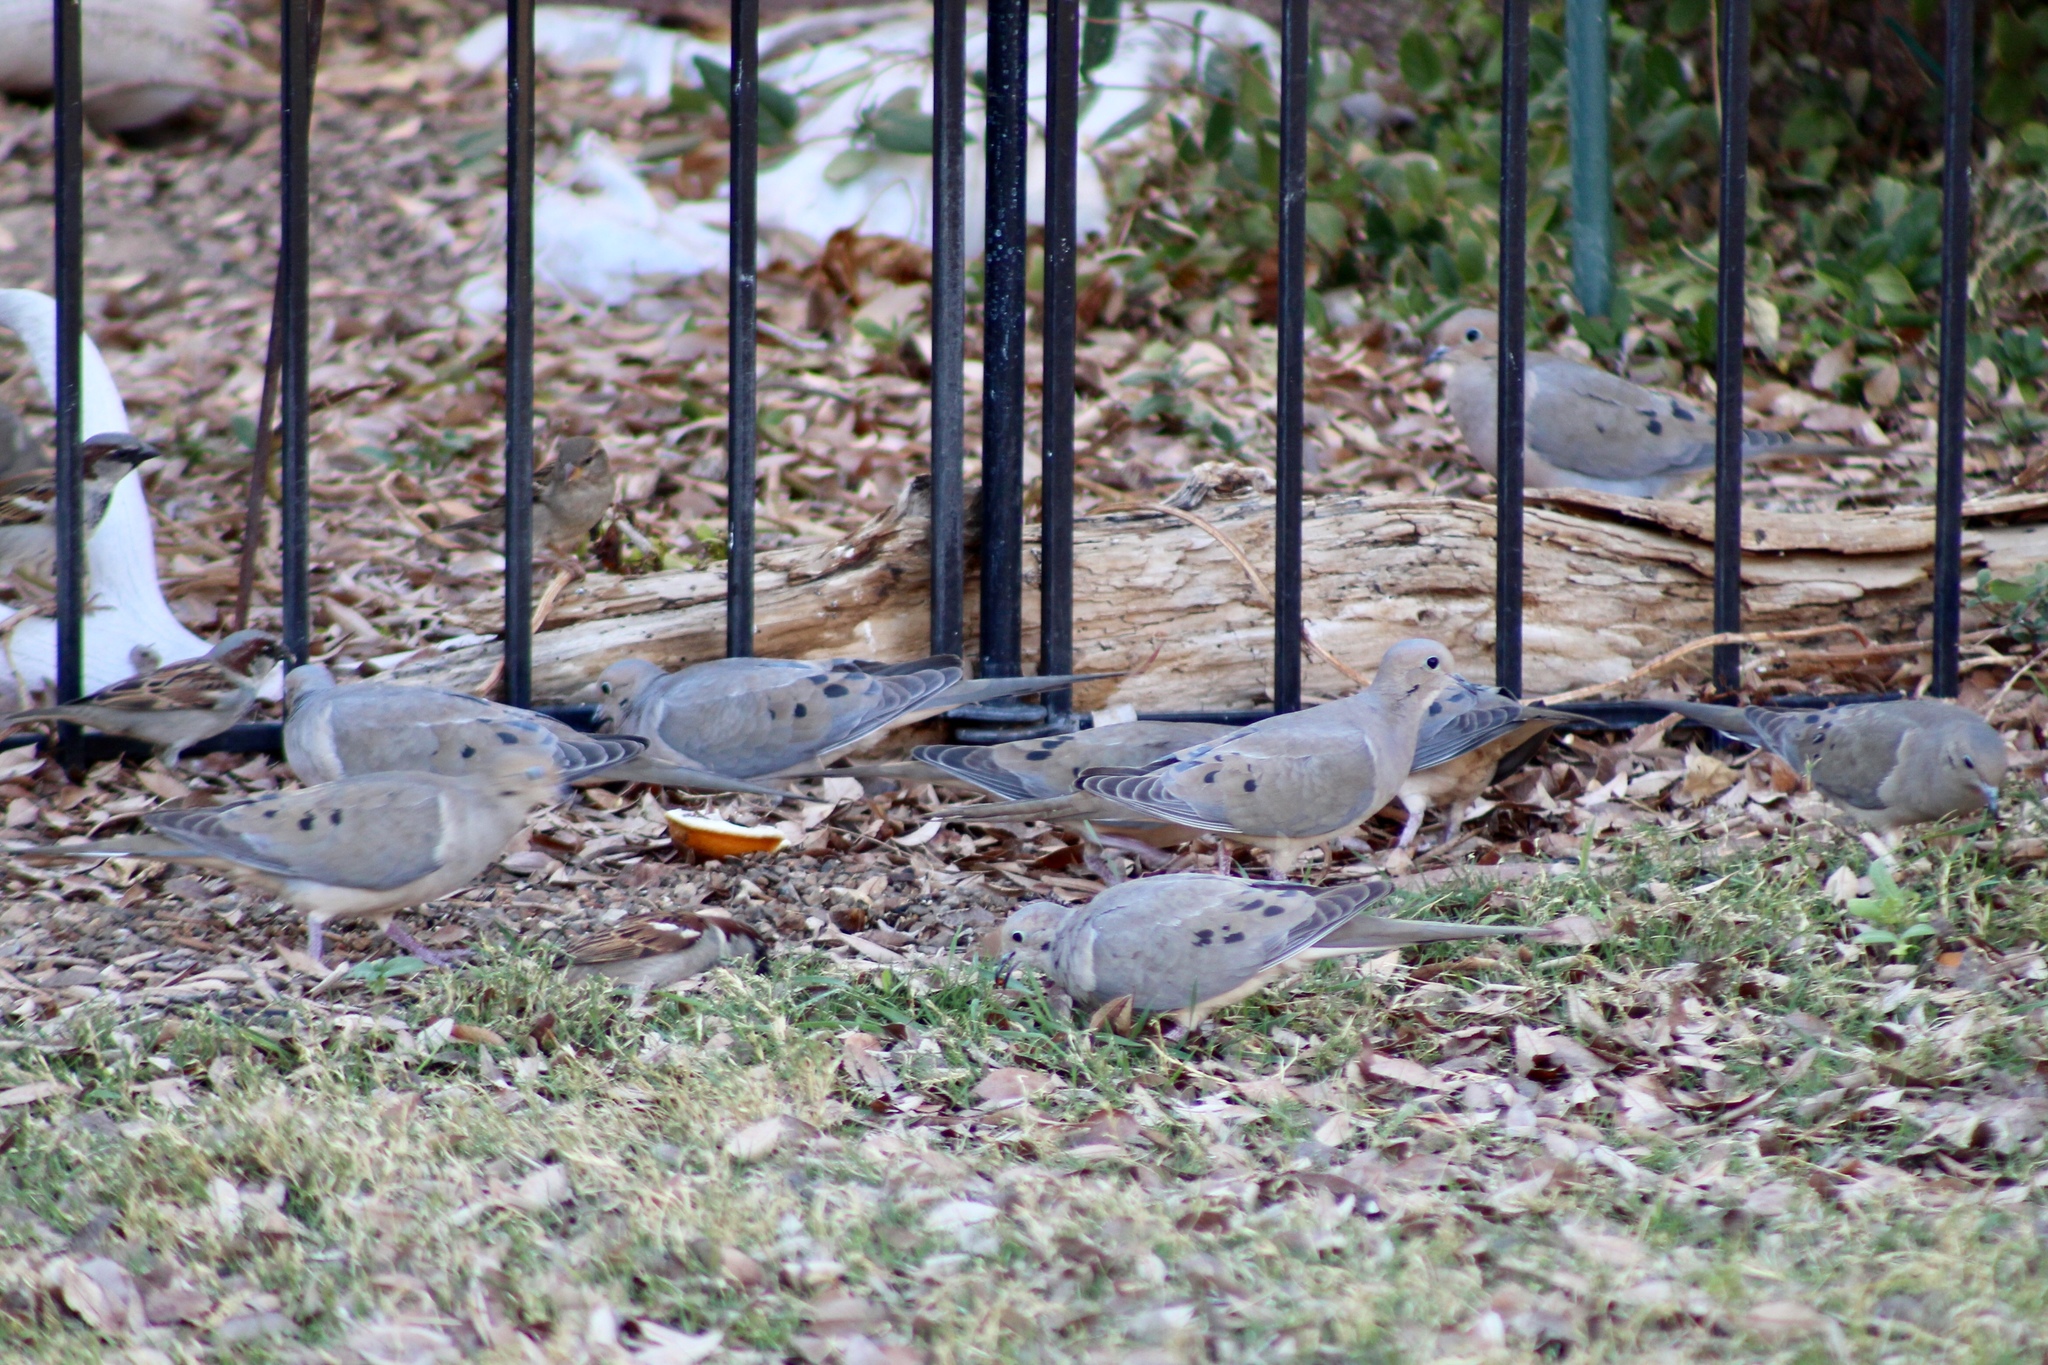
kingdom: Animalia
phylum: Chordata
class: Aves
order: Columbiformes
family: Columbidae
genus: Zenaida
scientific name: Zenaida macroura
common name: Mourning dove
